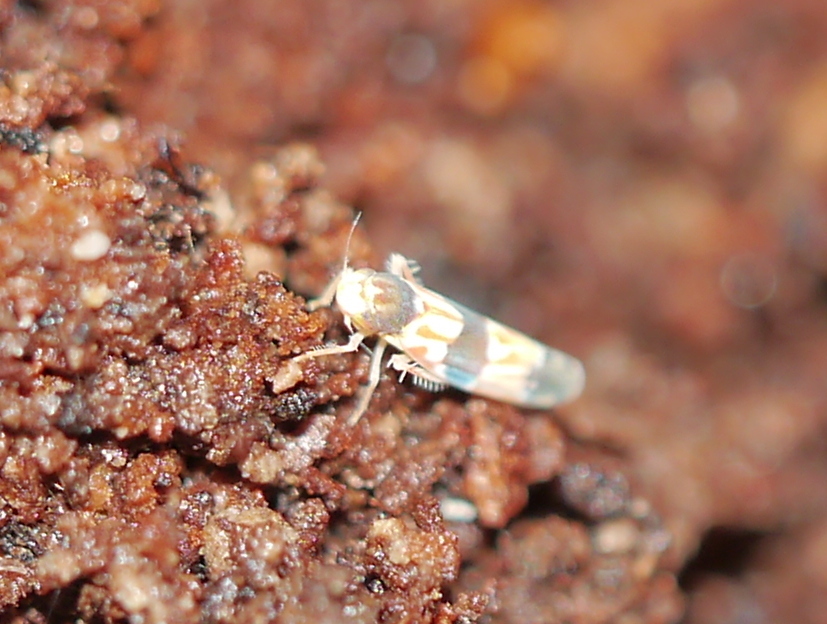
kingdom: Animalia
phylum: Arthropoda
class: Insecta
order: Hemiptera
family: Cicadellidae
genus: Erythroneura
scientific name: Erythroneura tricincta
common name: The threebanded grape leafhopper
